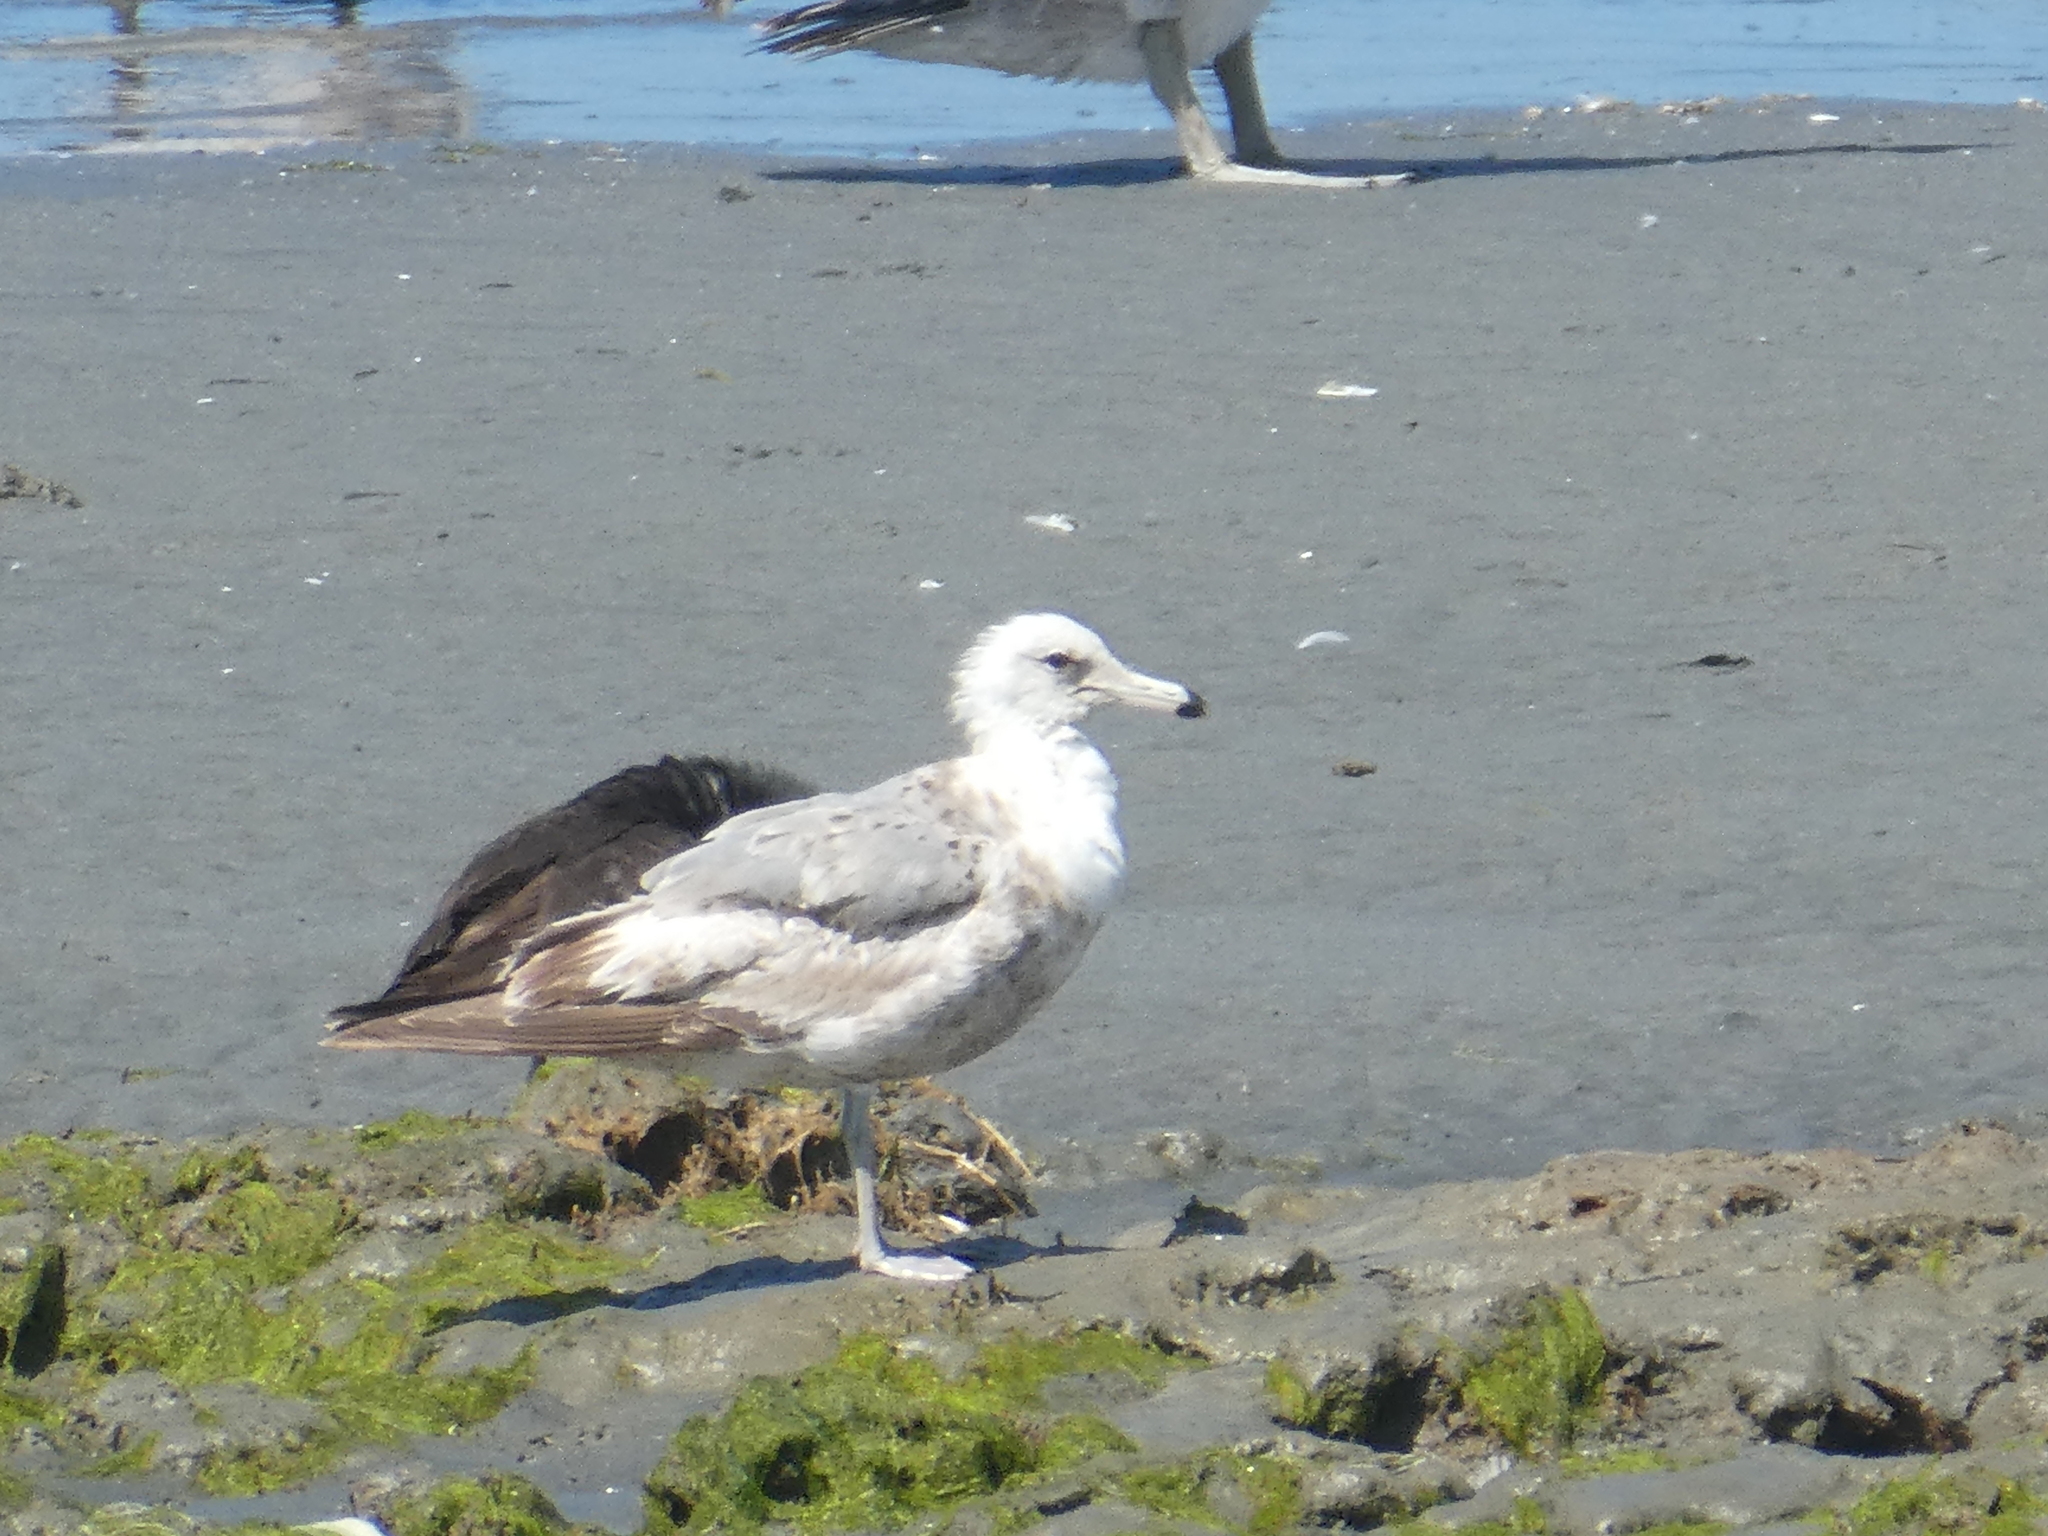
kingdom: Animalia
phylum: Chordata
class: Aves
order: Charadriiformes
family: Laridae
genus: Larus
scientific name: Larus californicus
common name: California gull
